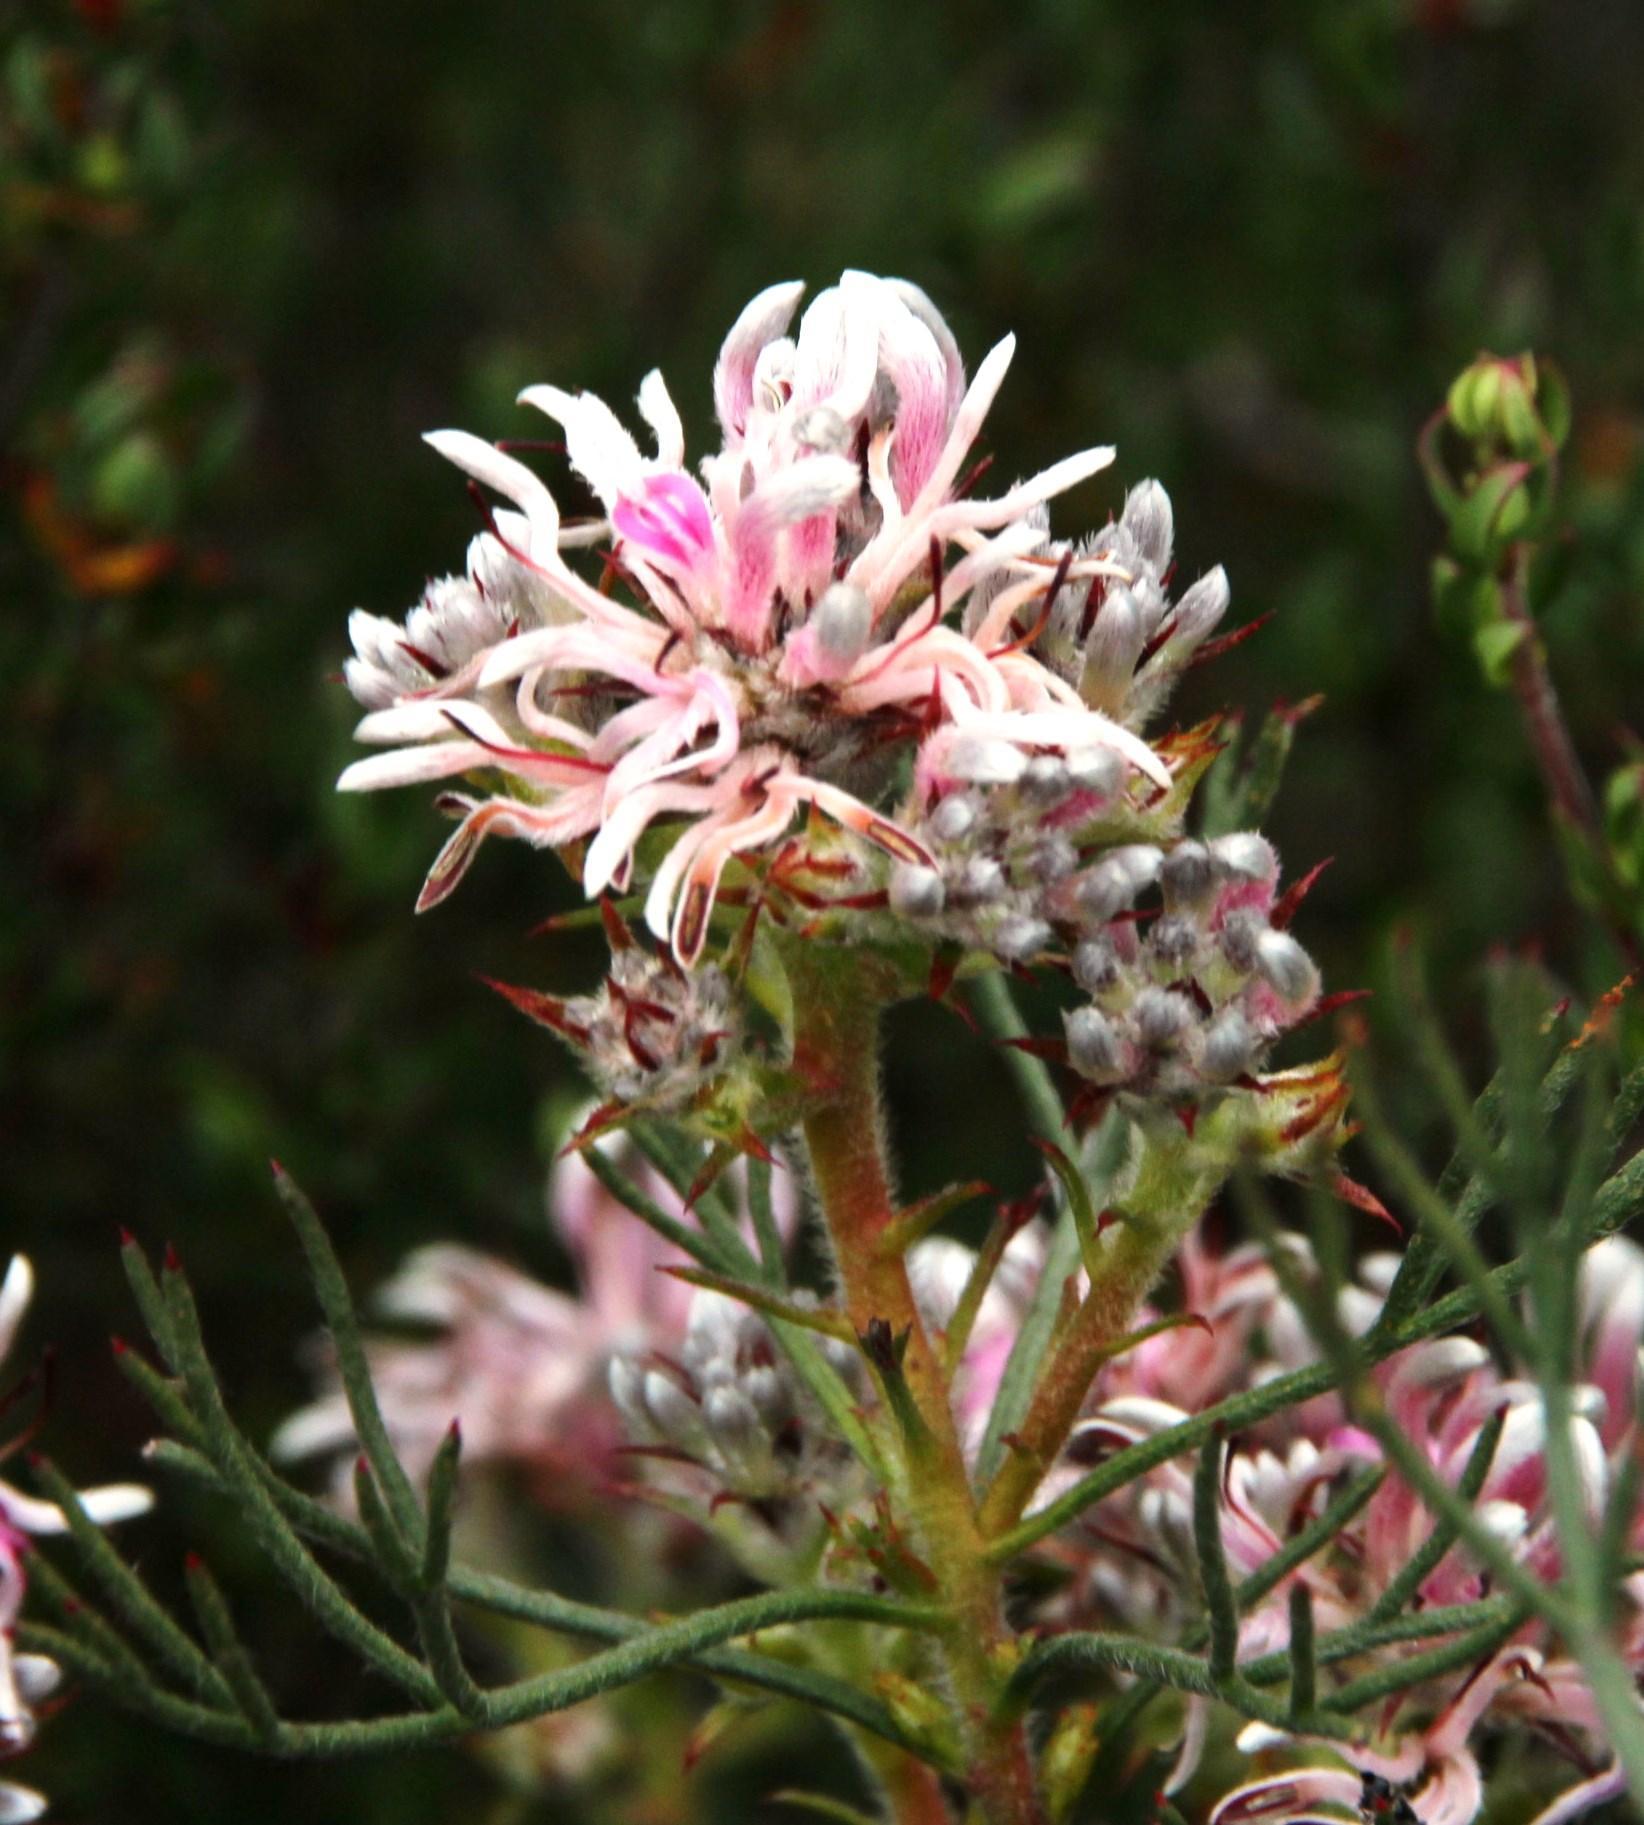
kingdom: Plantae
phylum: Tracheophyta
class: Magnoliopsida
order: Proteales
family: Proteaceae
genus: Serruria
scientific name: Serruria decipiens
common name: Sandveld spiderhead
